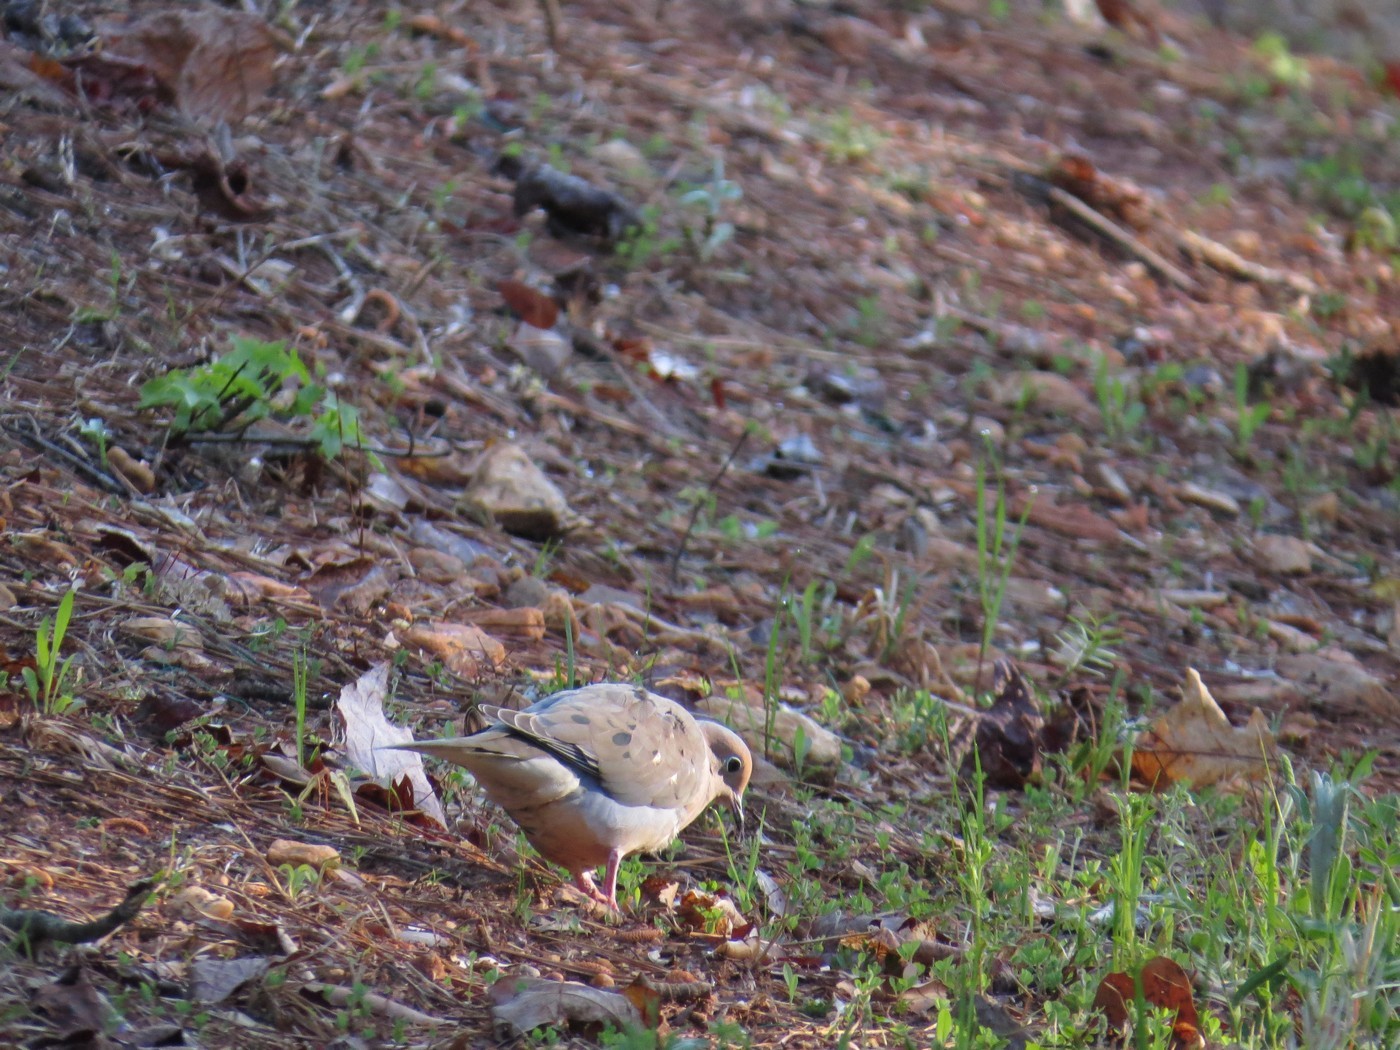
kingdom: Animalia
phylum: Chordata
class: Aves
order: Columbiformes
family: Columbidae
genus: Zenaida
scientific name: Zenaida macroura
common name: Mourning dove
